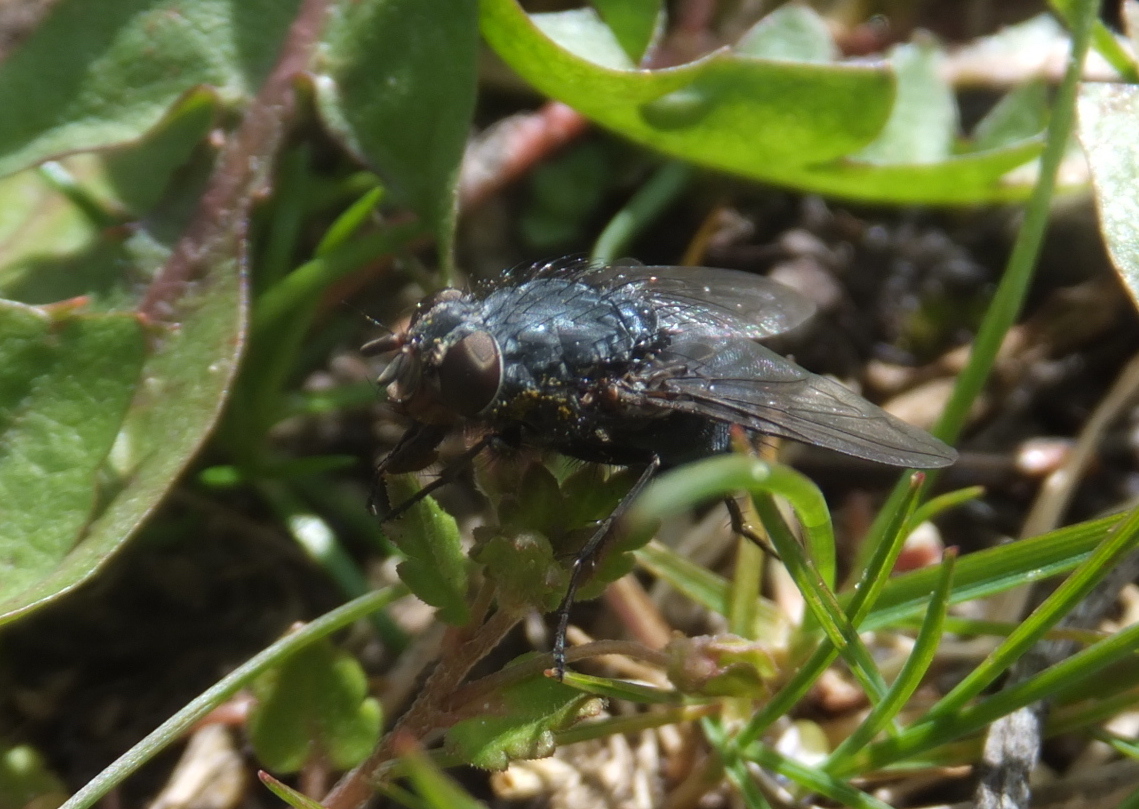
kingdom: Animalia
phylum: Arthropoda
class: Insecta
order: Diptera
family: Calliphoridae
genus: Calliphora
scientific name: Calliphora vicina
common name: Common blow flie
